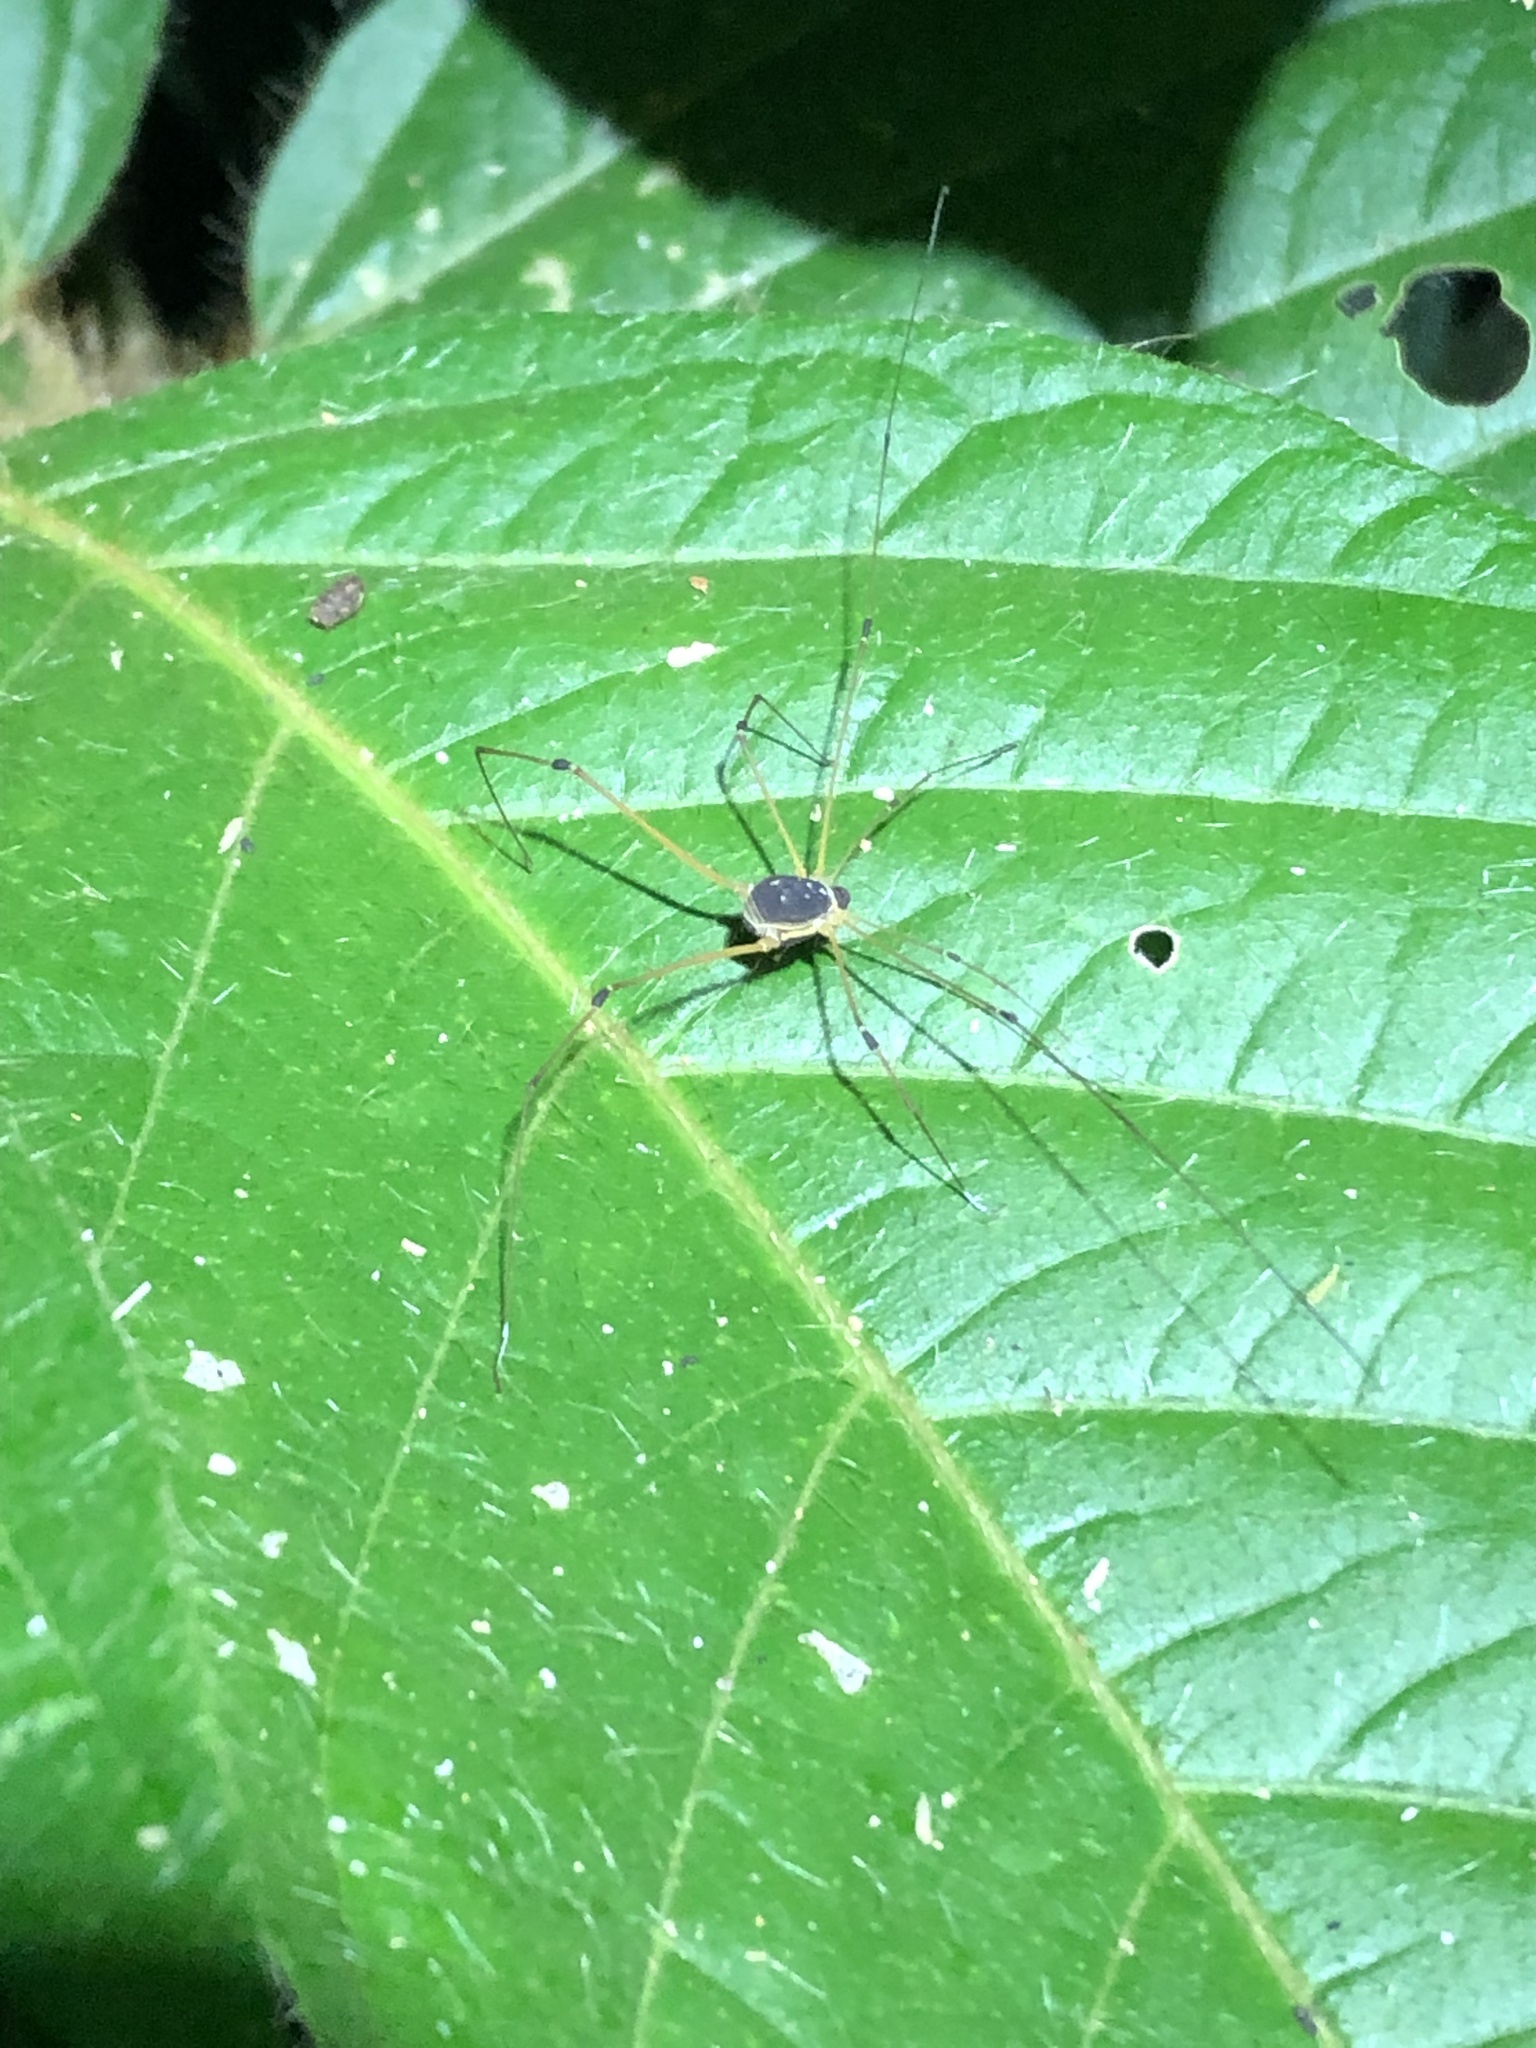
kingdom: Animalia
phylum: Arthropoda
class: Arachnida
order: Opiliones
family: Cosmetidae
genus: Protus
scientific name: Protus bolivari
